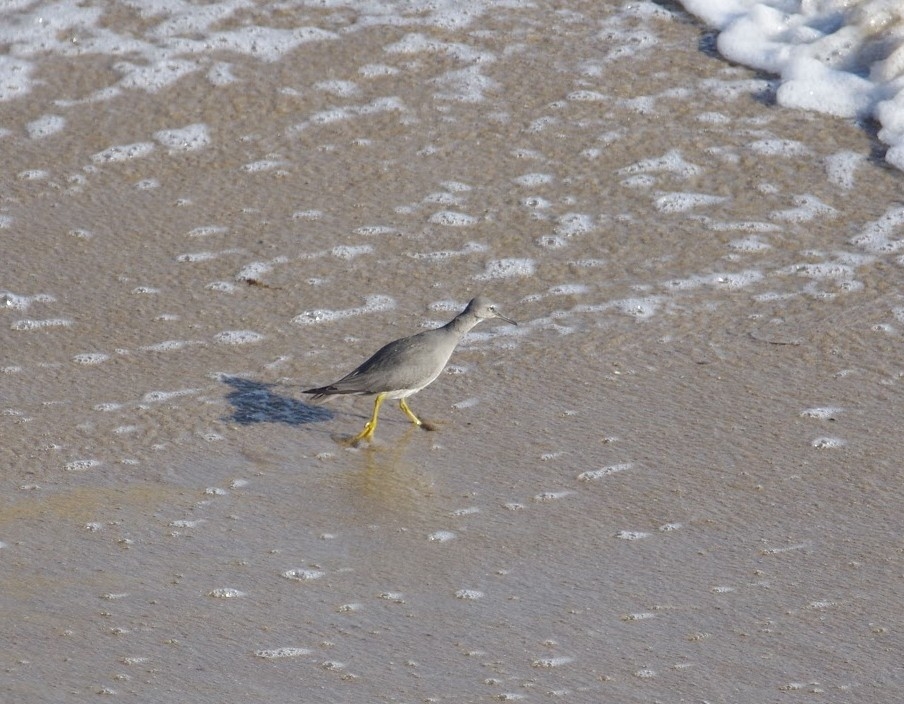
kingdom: Animalia
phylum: Chordata
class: Aves
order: Charadriiformes
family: Scolopacidae
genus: Tringa
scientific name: Tringa incana
